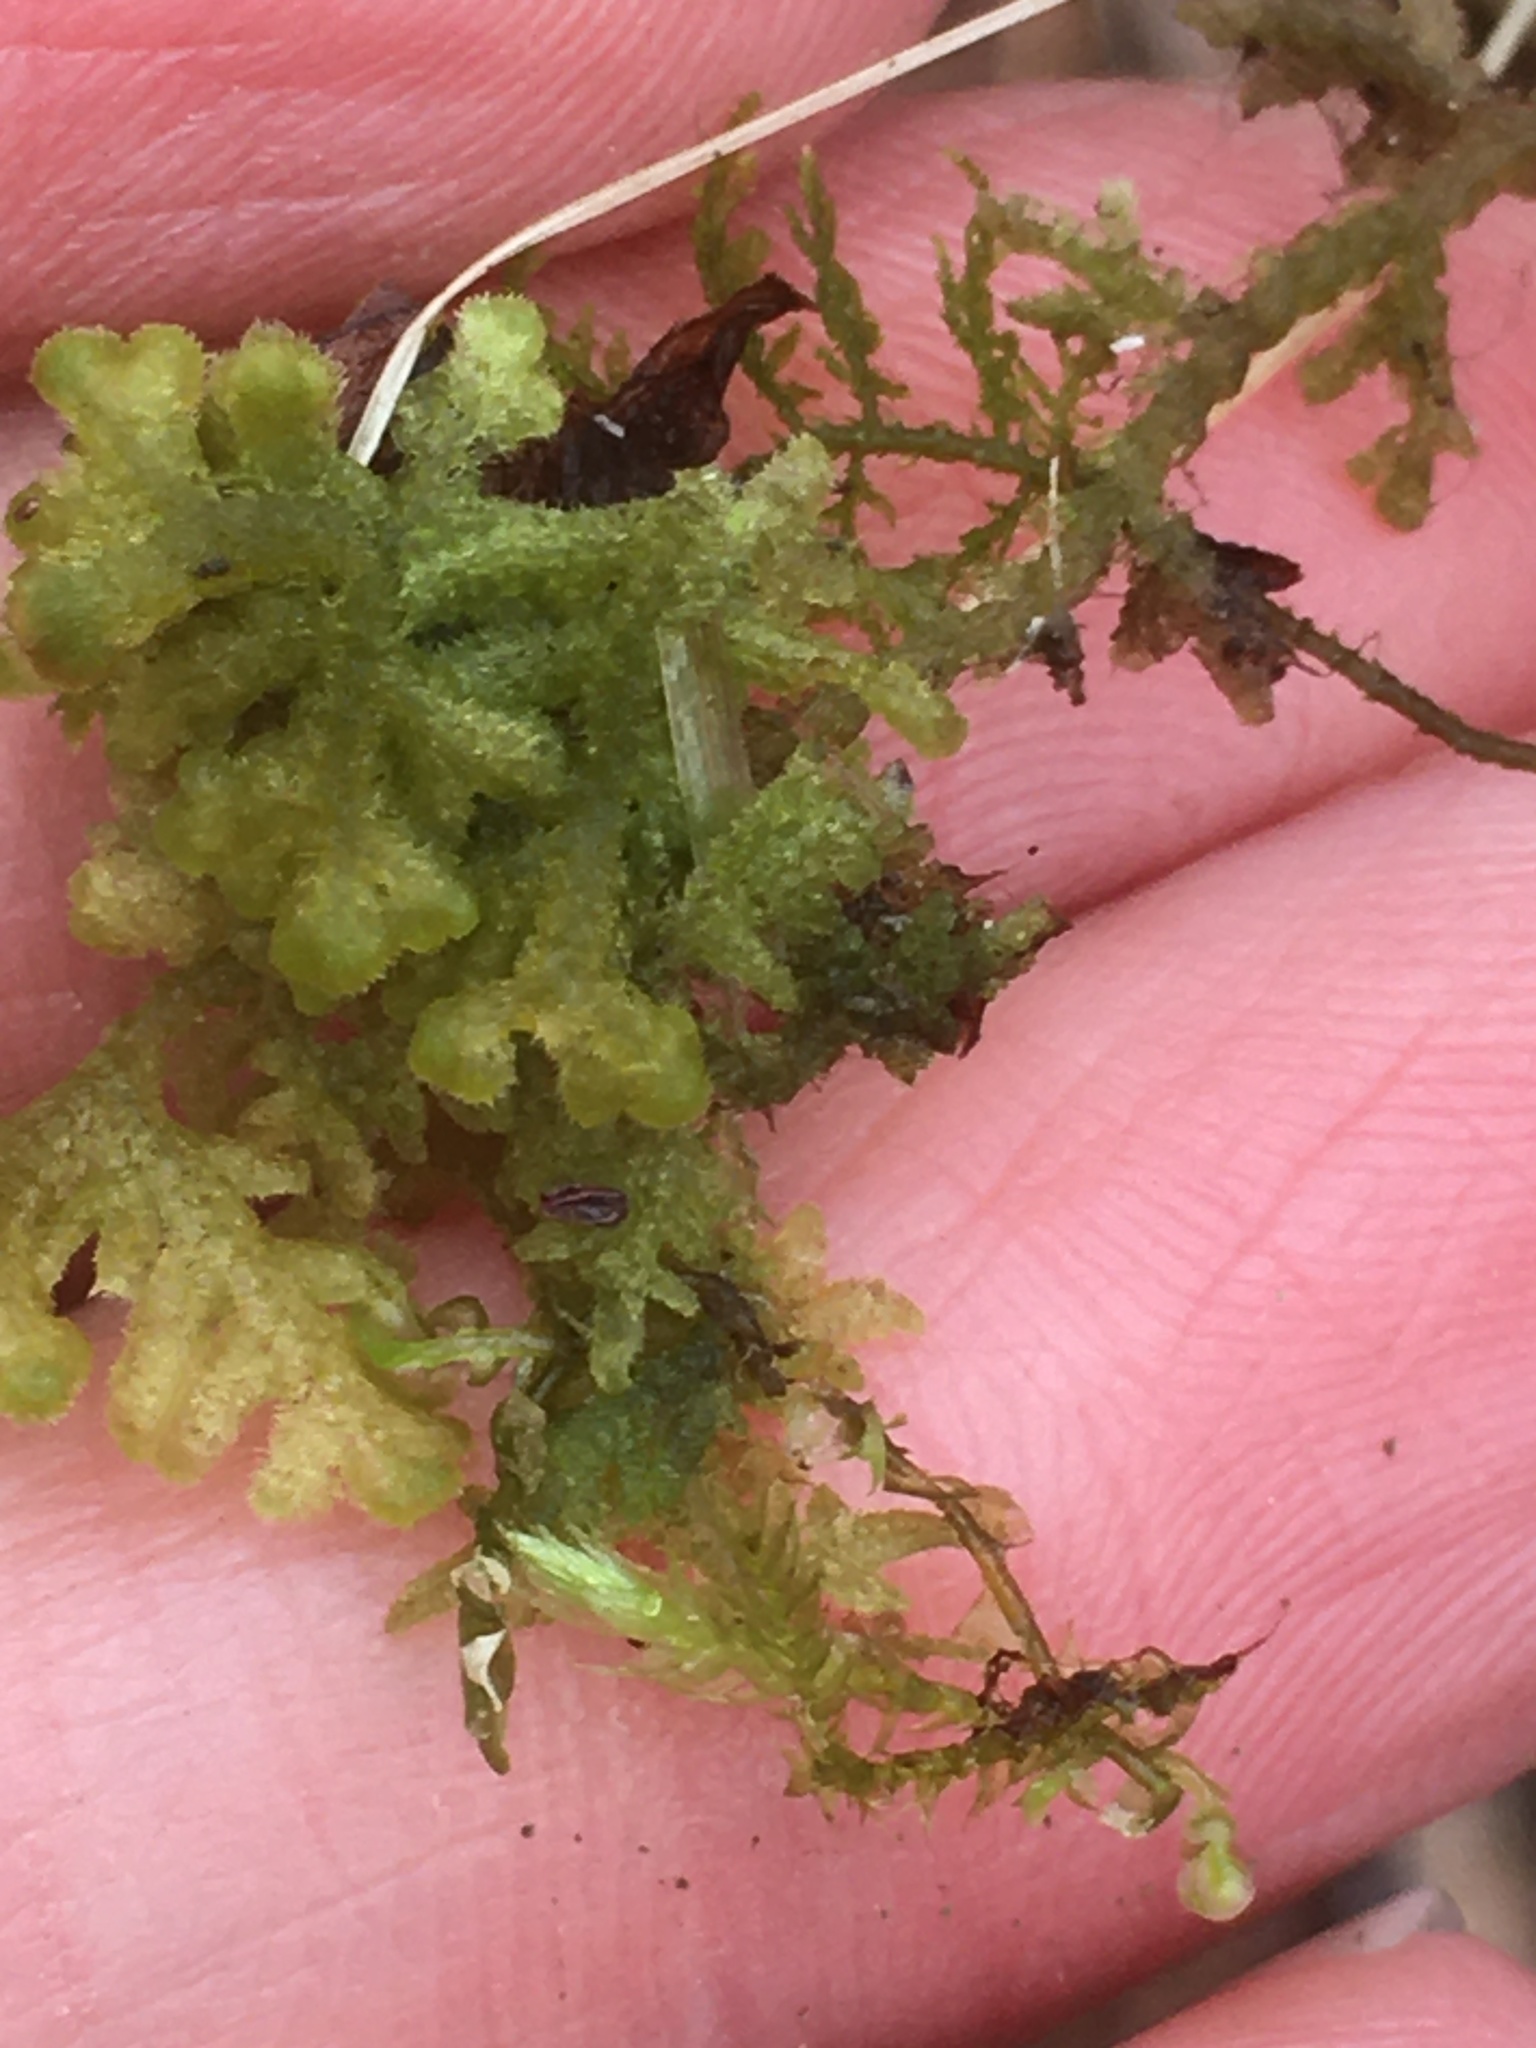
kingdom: Plantae
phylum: Marchantiophyta
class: Jungermanniopsida
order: Jungermanniales
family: Trichocoleaceae
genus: Trichocolea
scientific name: Trichocolea tomentella
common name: Woolly liverwort
